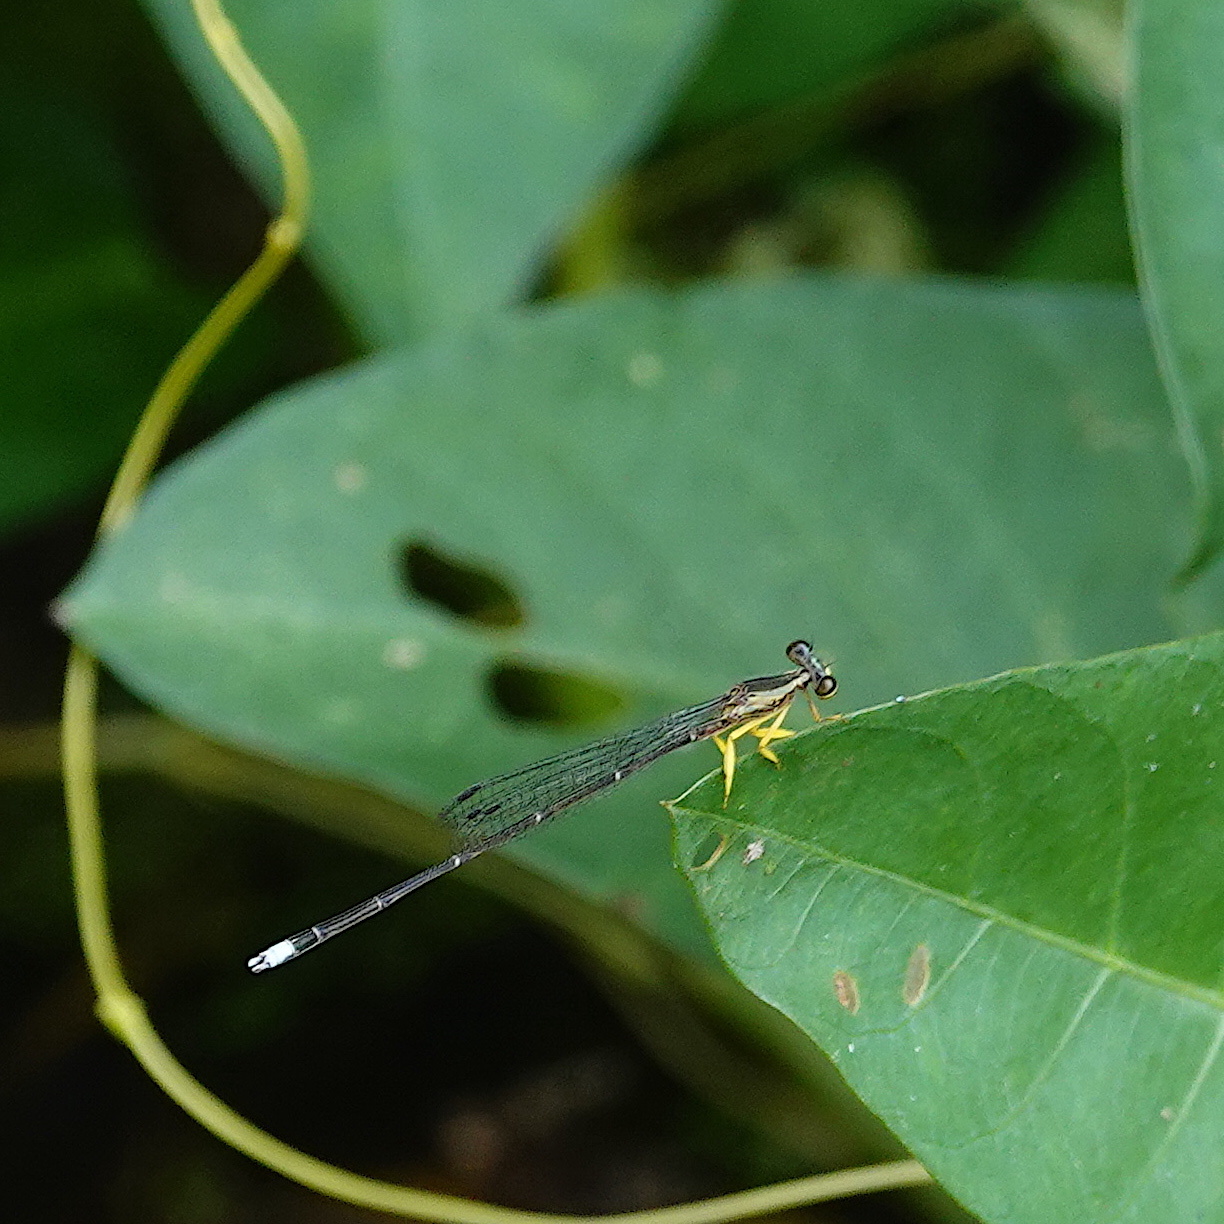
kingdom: Animalia
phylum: Arthropoda
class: Insecta
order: Odonata
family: Platycnemididae
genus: Copera
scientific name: Copera marginipes
